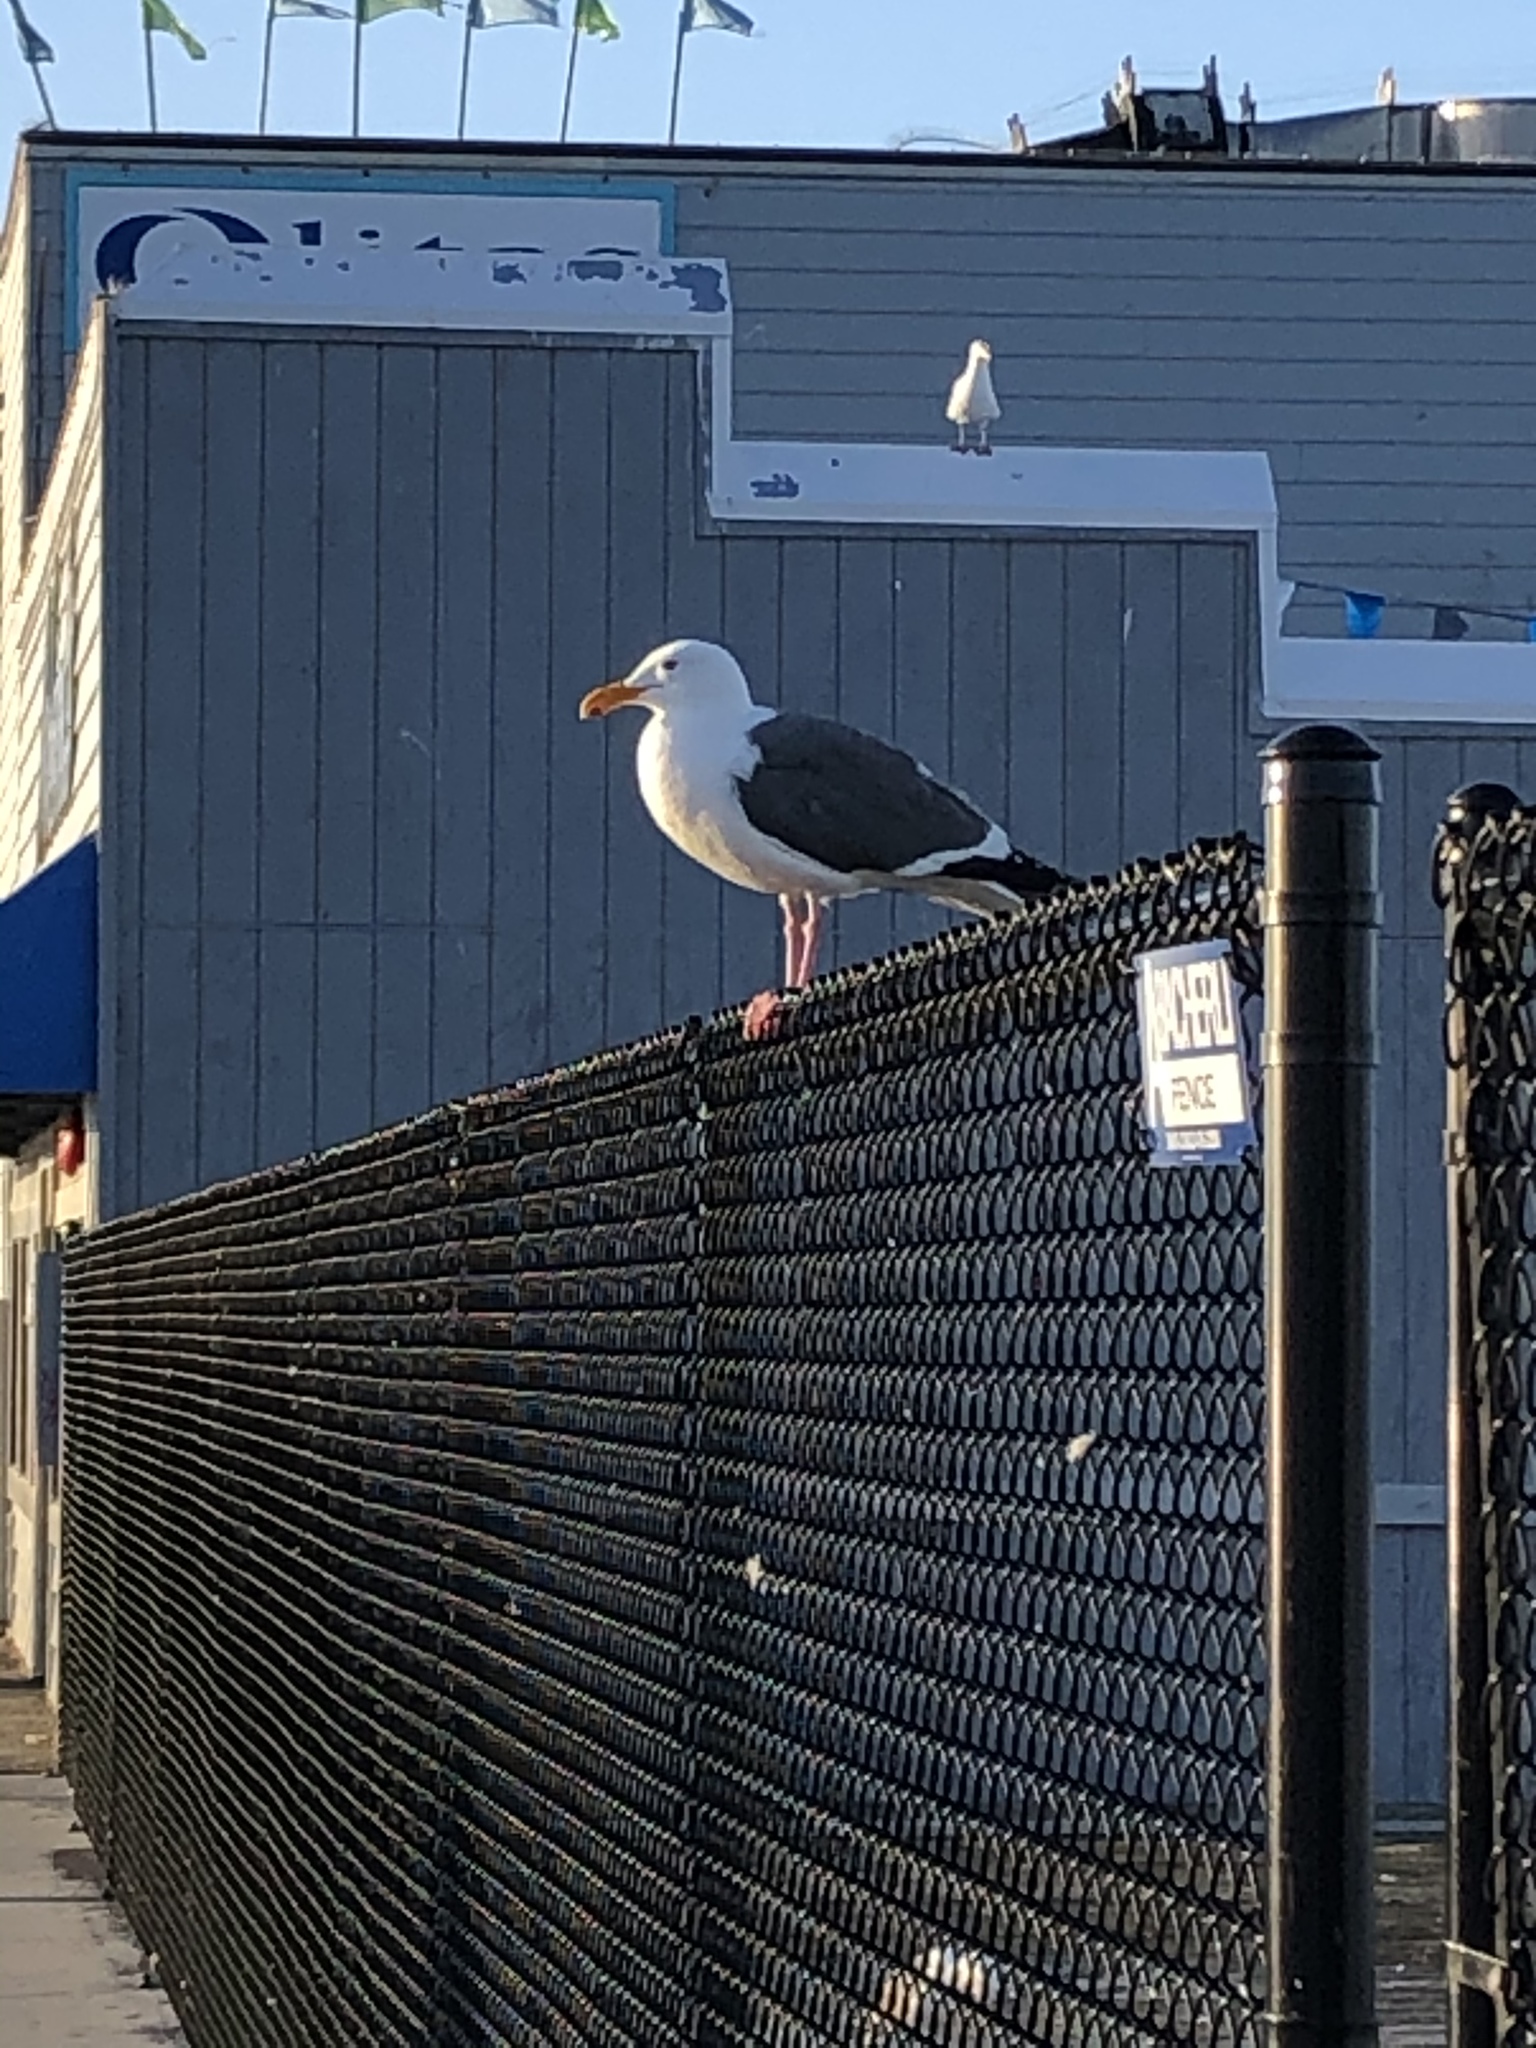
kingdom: Animalia
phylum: Chordata
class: Aves
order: Charadriiformes
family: Laridae
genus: Larus
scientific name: Larus occidentalis
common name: Western gull
